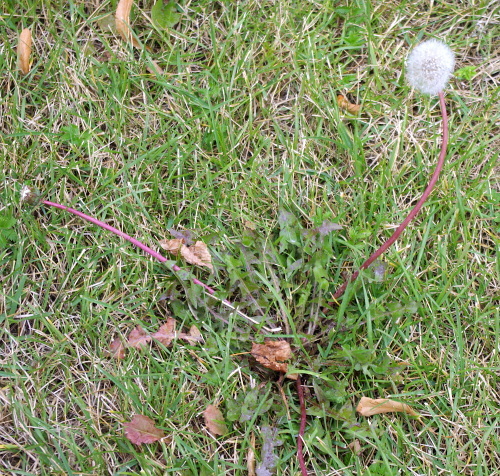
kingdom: Plantae
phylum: Tracheophyta
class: Magnoliopsida
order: Asterales
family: Asteraceae
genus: Taraxacum
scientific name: Taraxacum officinale
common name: Common dandelion
